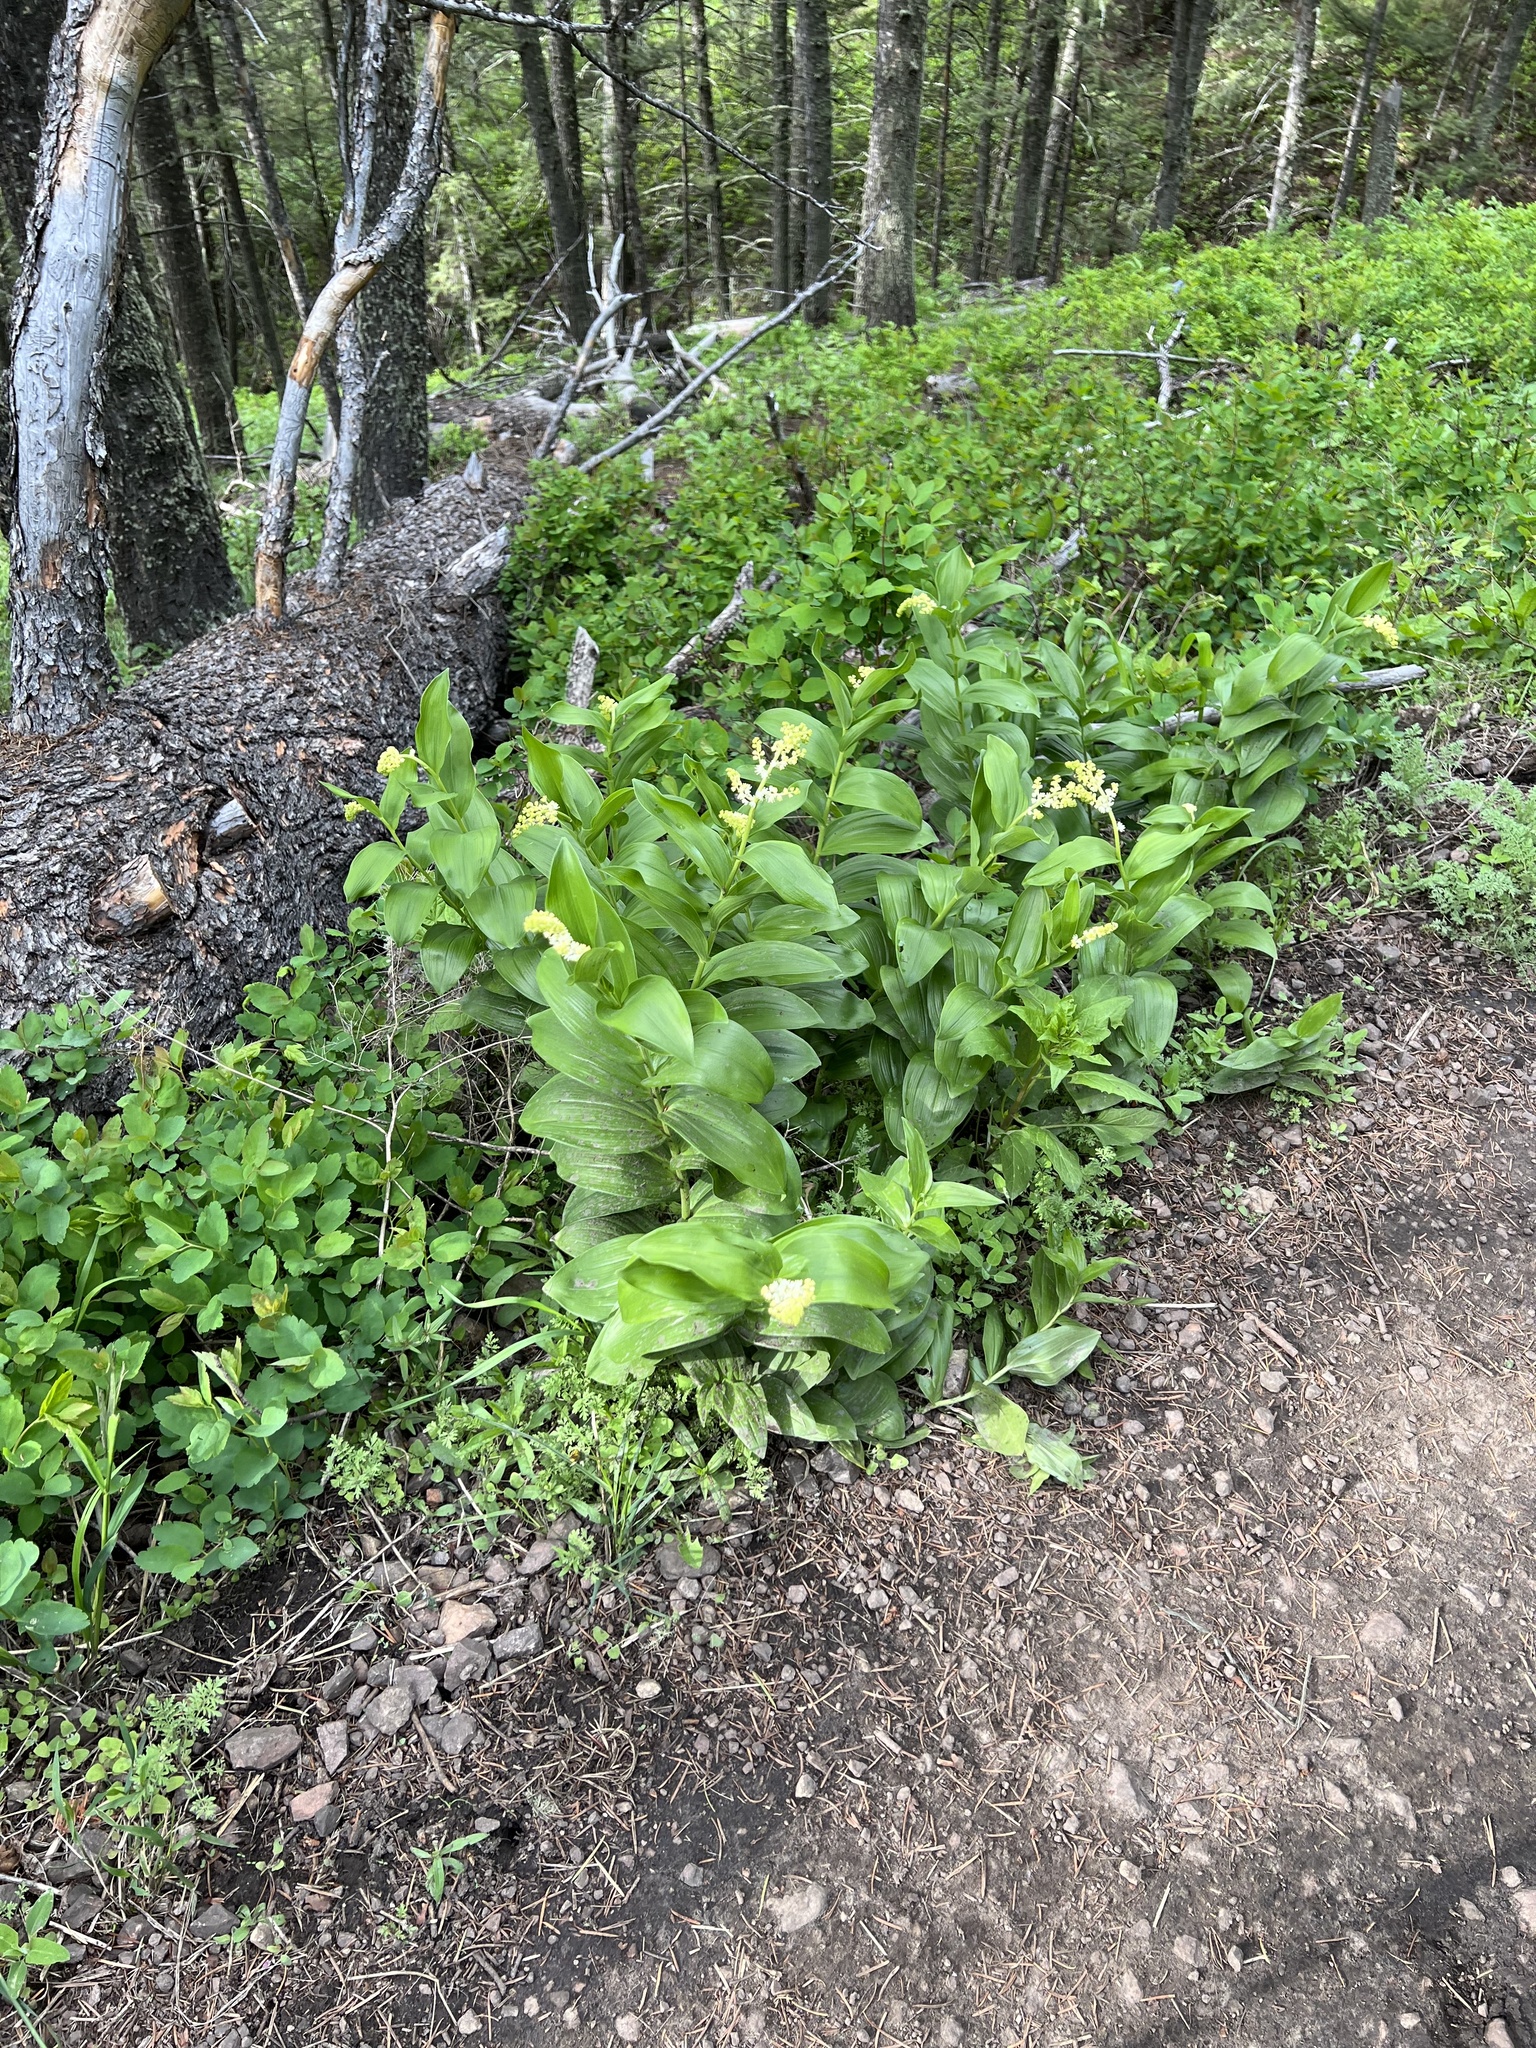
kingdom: Plantae
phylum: Tracheophyta
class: Liliopsida
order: Asparagales
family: Asparagaceae
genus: Maianthemum
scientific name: Maianthemum racemosum
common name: False spikenard
